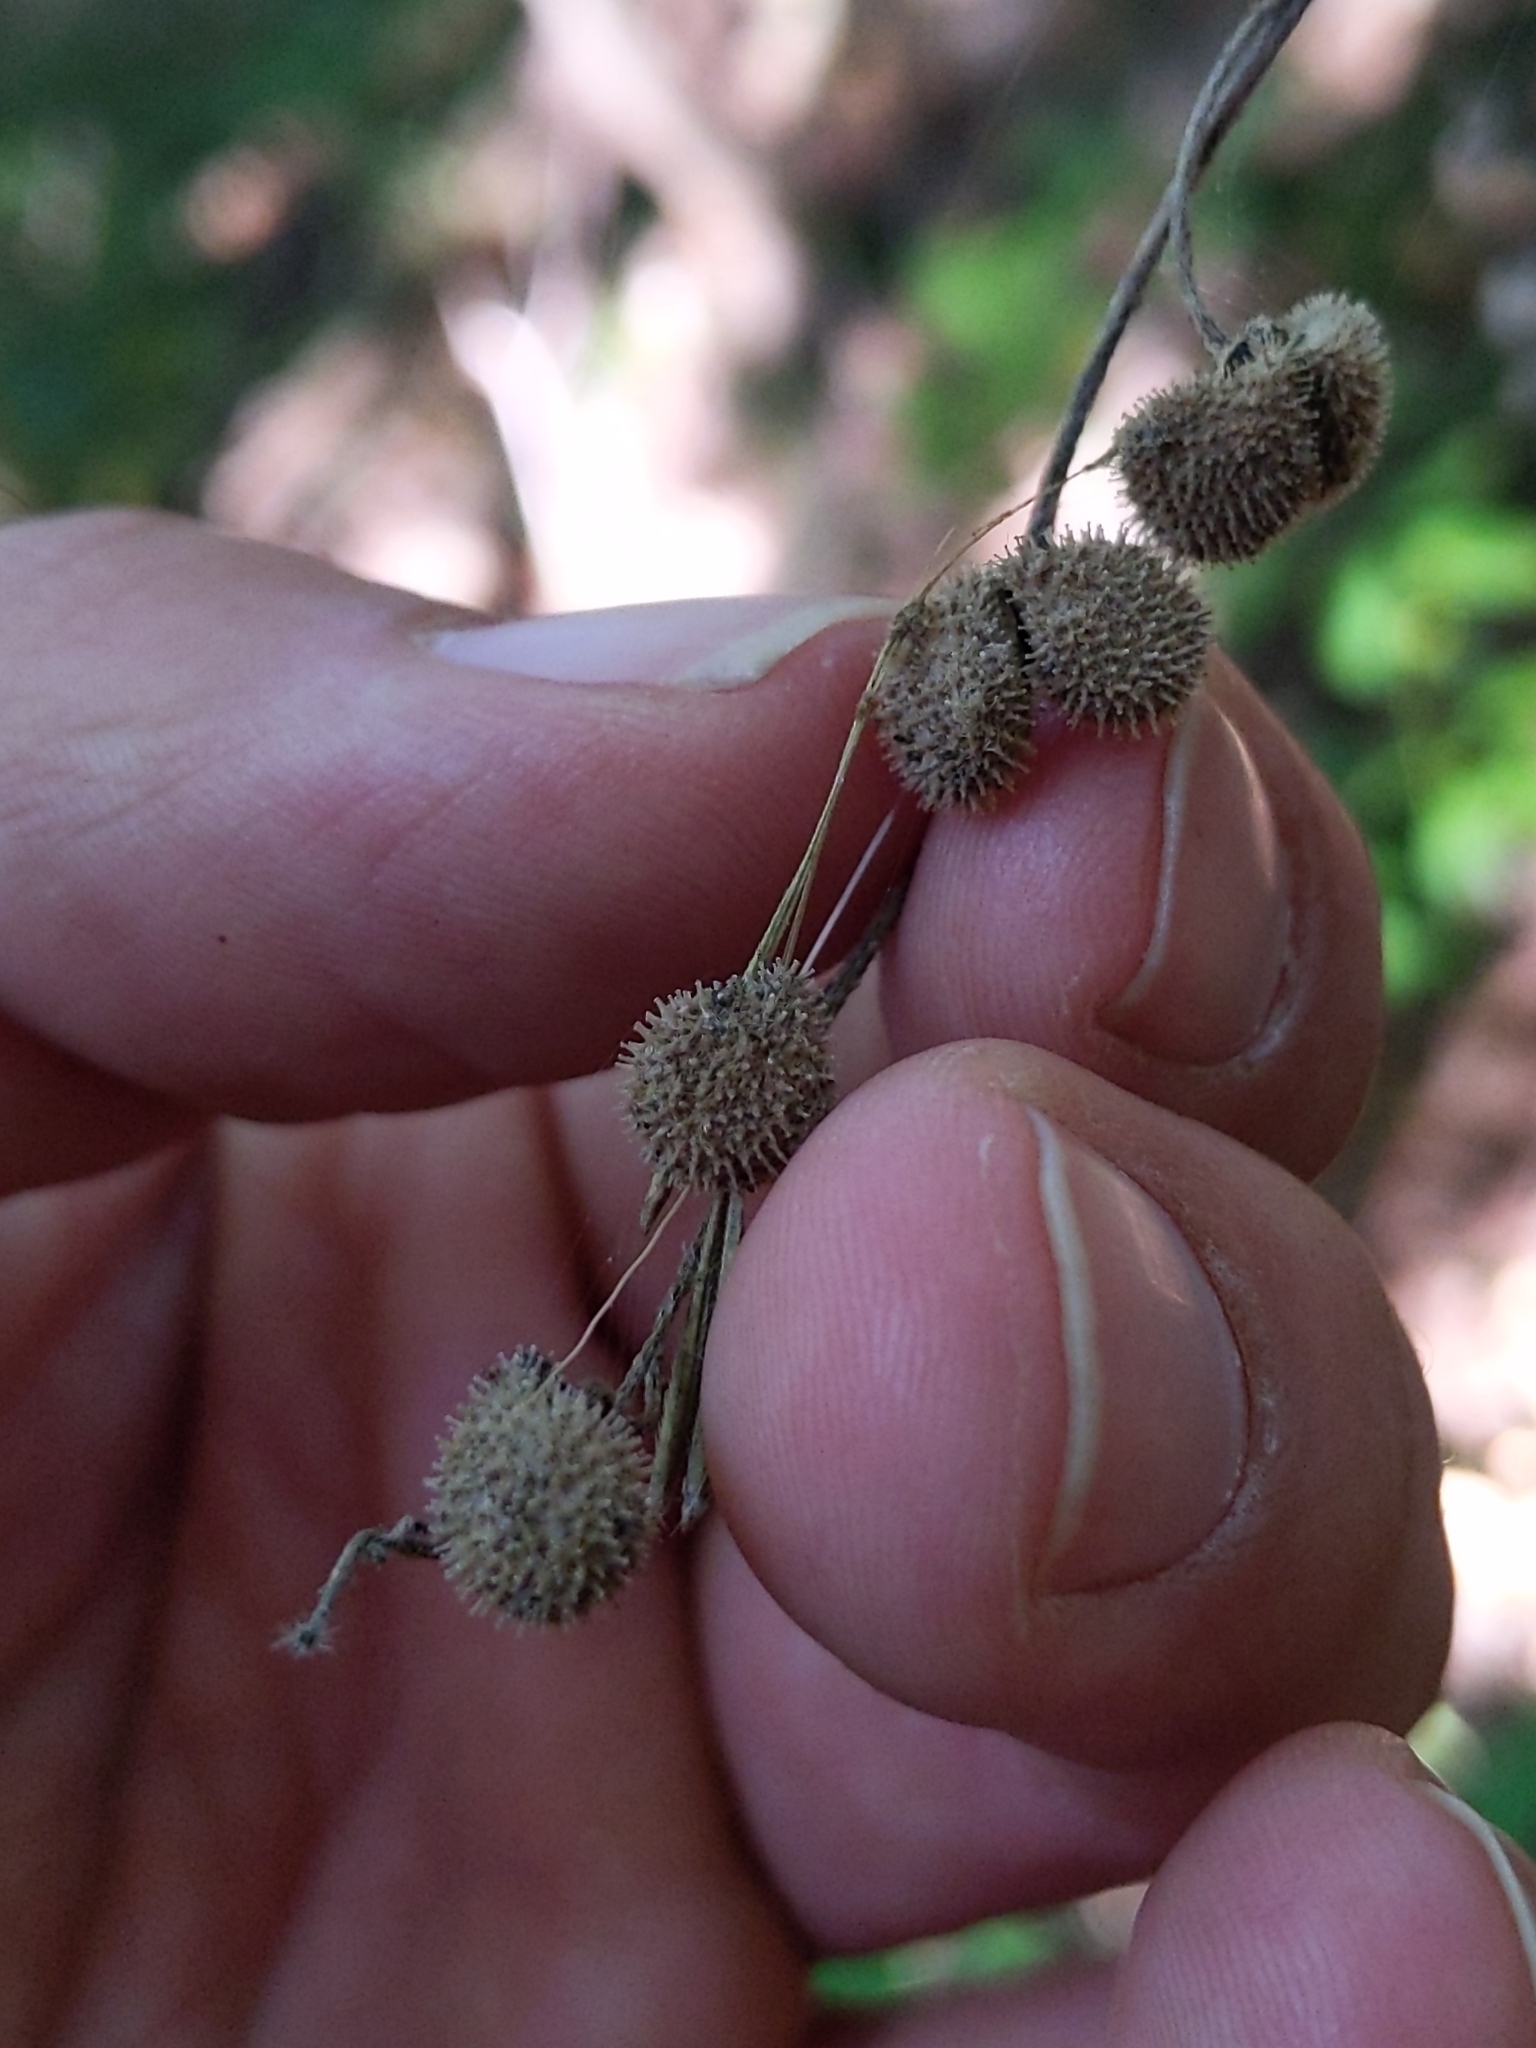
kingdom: Plantae
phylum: Tracheophyta
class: Magnoliopsida
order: Boraginales
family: Boraginaceae
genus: Andersonglossum
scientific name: Andersonglossum virginianum
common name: Wild comfrey
